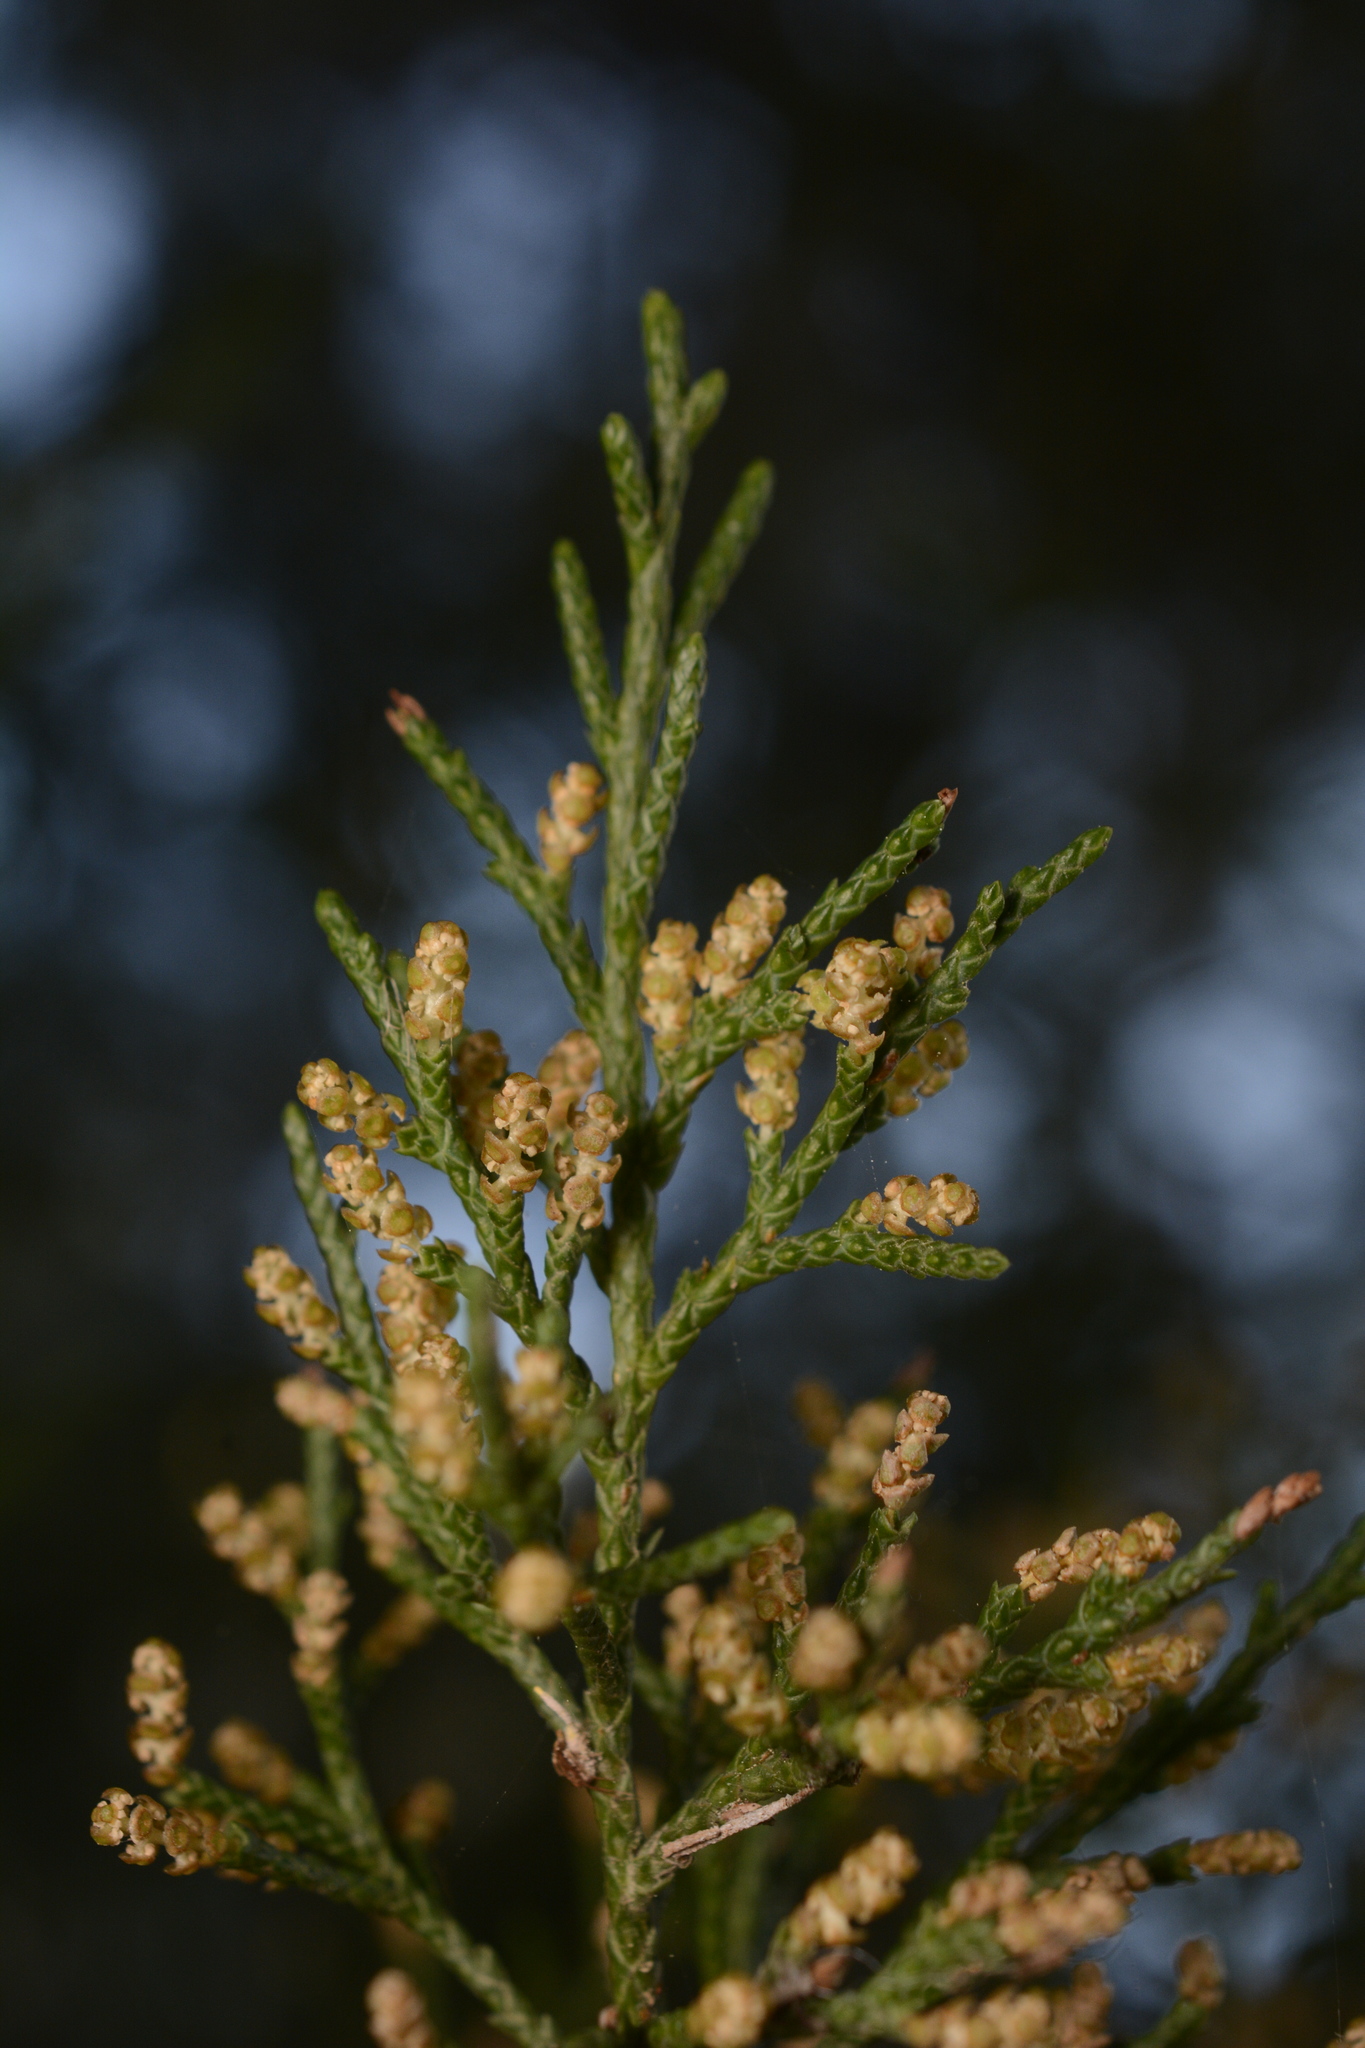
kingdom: Plantae
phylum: Tracheophyta
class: Pinopsida
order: Pinales
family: Cupressaceae
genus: Juniperus
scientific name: Juniperus virginiana
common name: Red juniper
